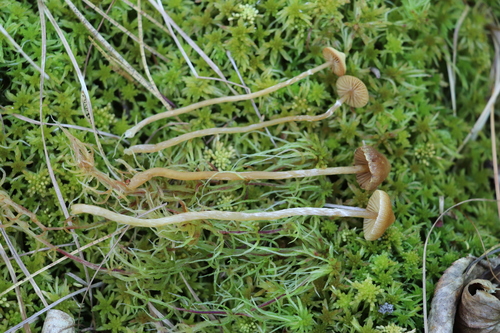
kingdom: Fungi
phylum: Basidiomycota
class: Agaricomycetes
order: Agaricales
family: Hymenogastraceae
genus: Galerina
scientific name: Galerina paludosa
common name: Bog bell
